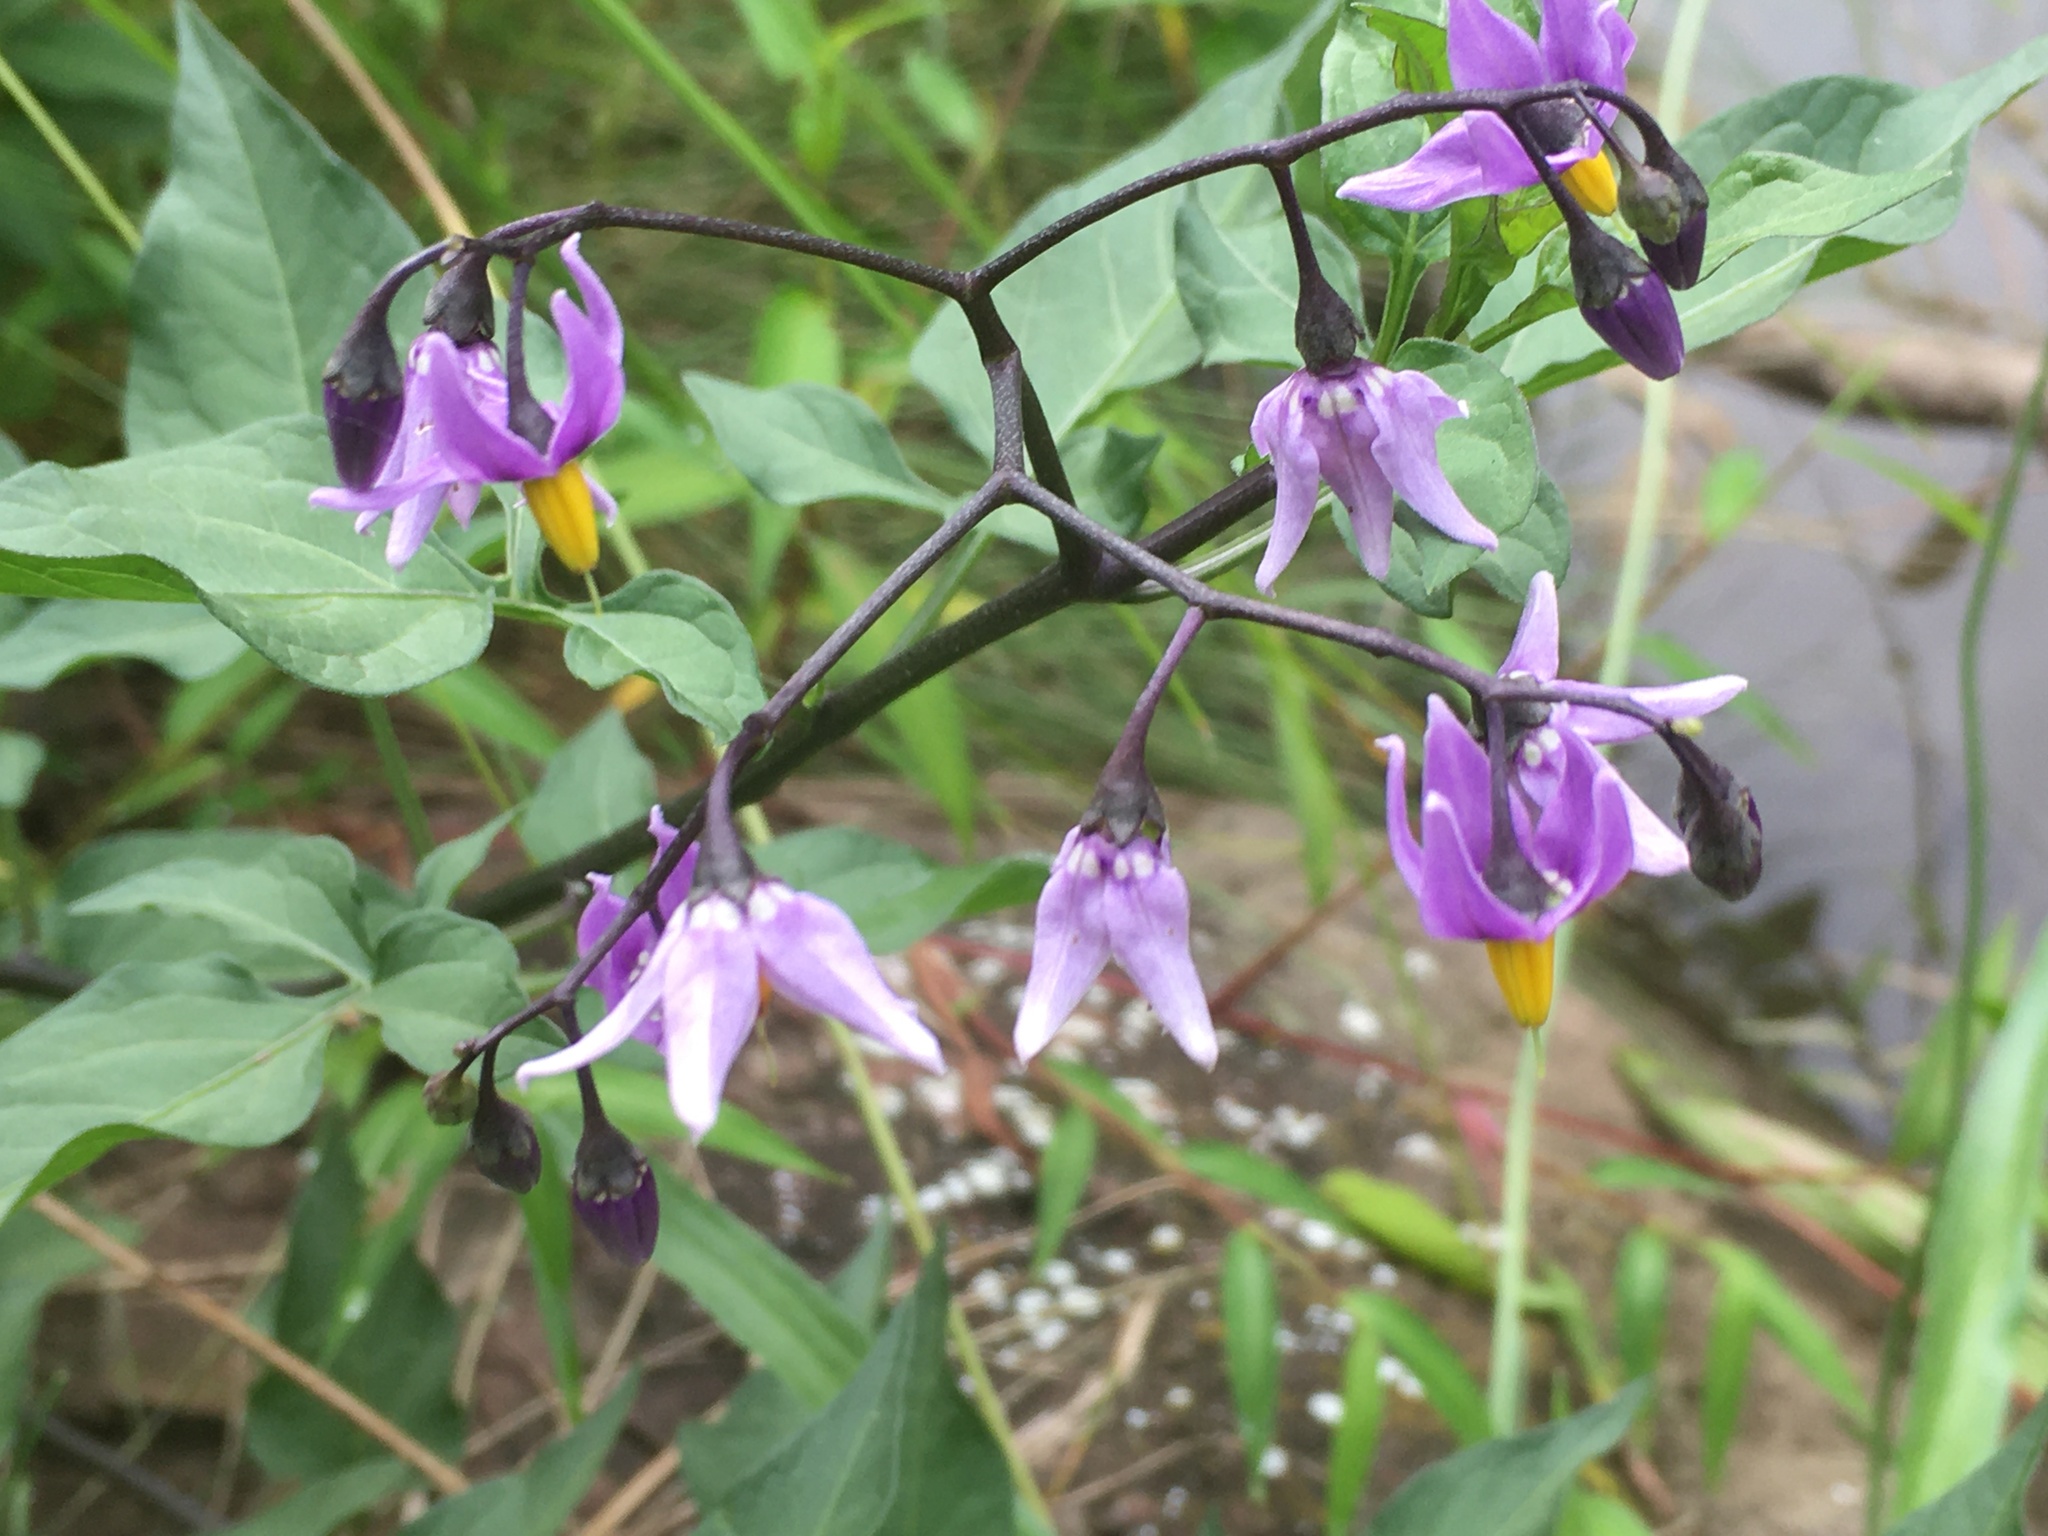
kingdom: Plantae
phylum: Tracheophyta
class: Magnoliopsida
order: Solanales
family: Solanaceae
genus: Solanum
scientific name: Solanum dulcamara
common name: Climbing nightshade
